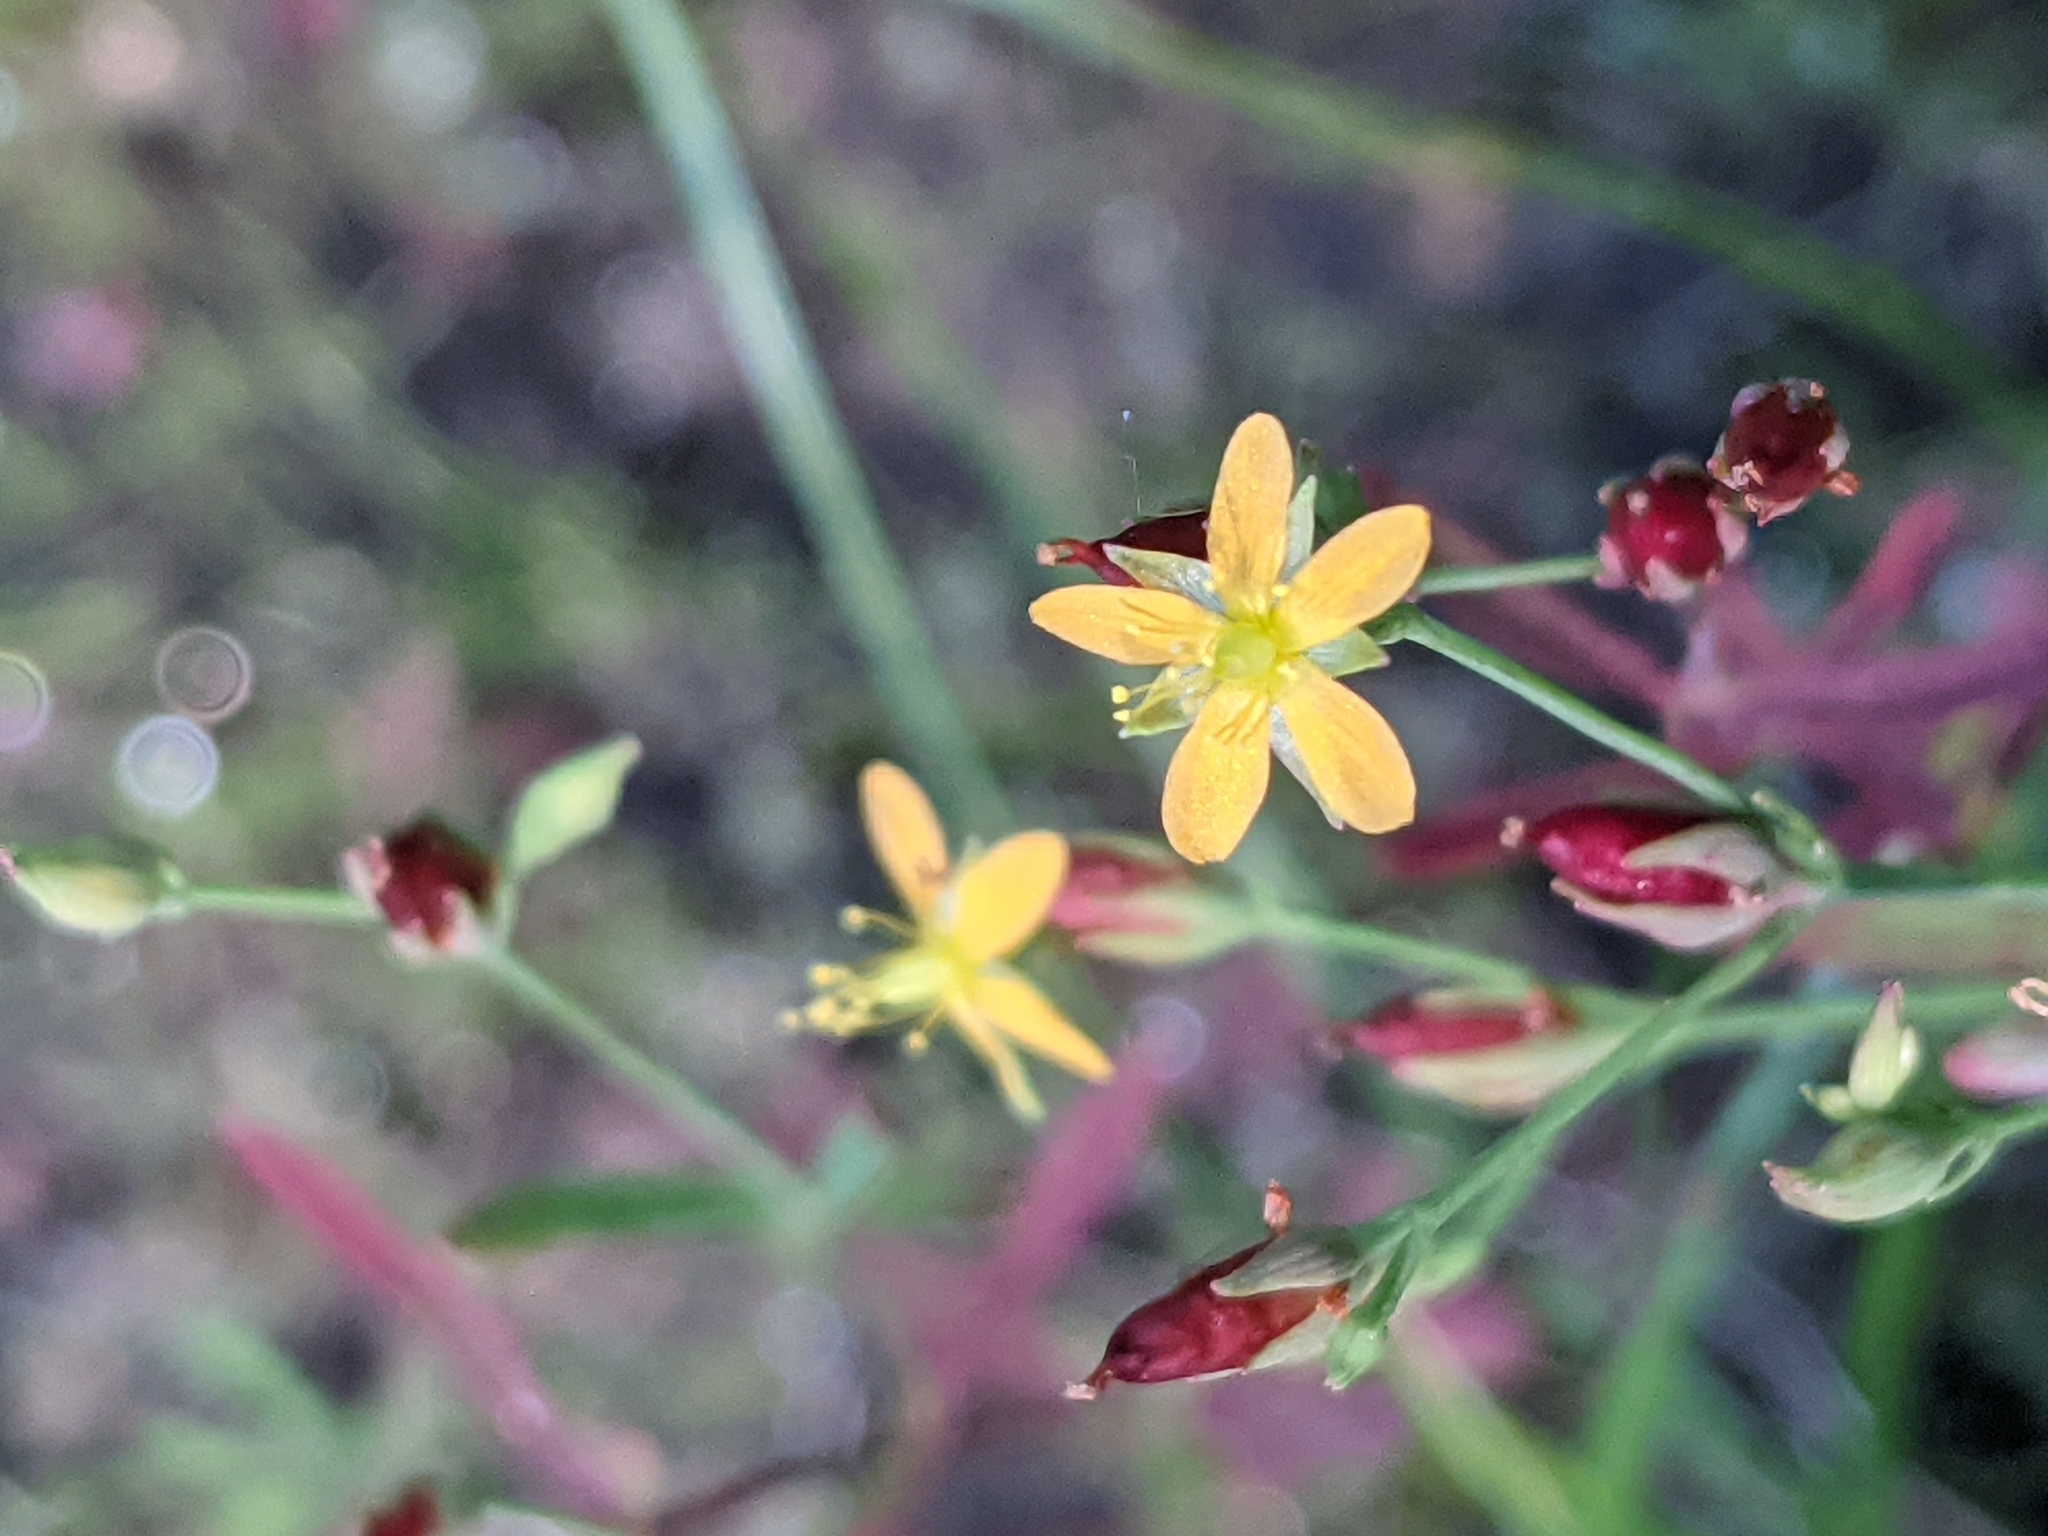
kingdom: Plantae
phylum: Tracheophyta
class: Magnoliopsida
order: Malpighiales
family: Hypericaceae
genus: Hypericum
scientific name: Hypericum canadense
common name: Irish st. john's-wort
